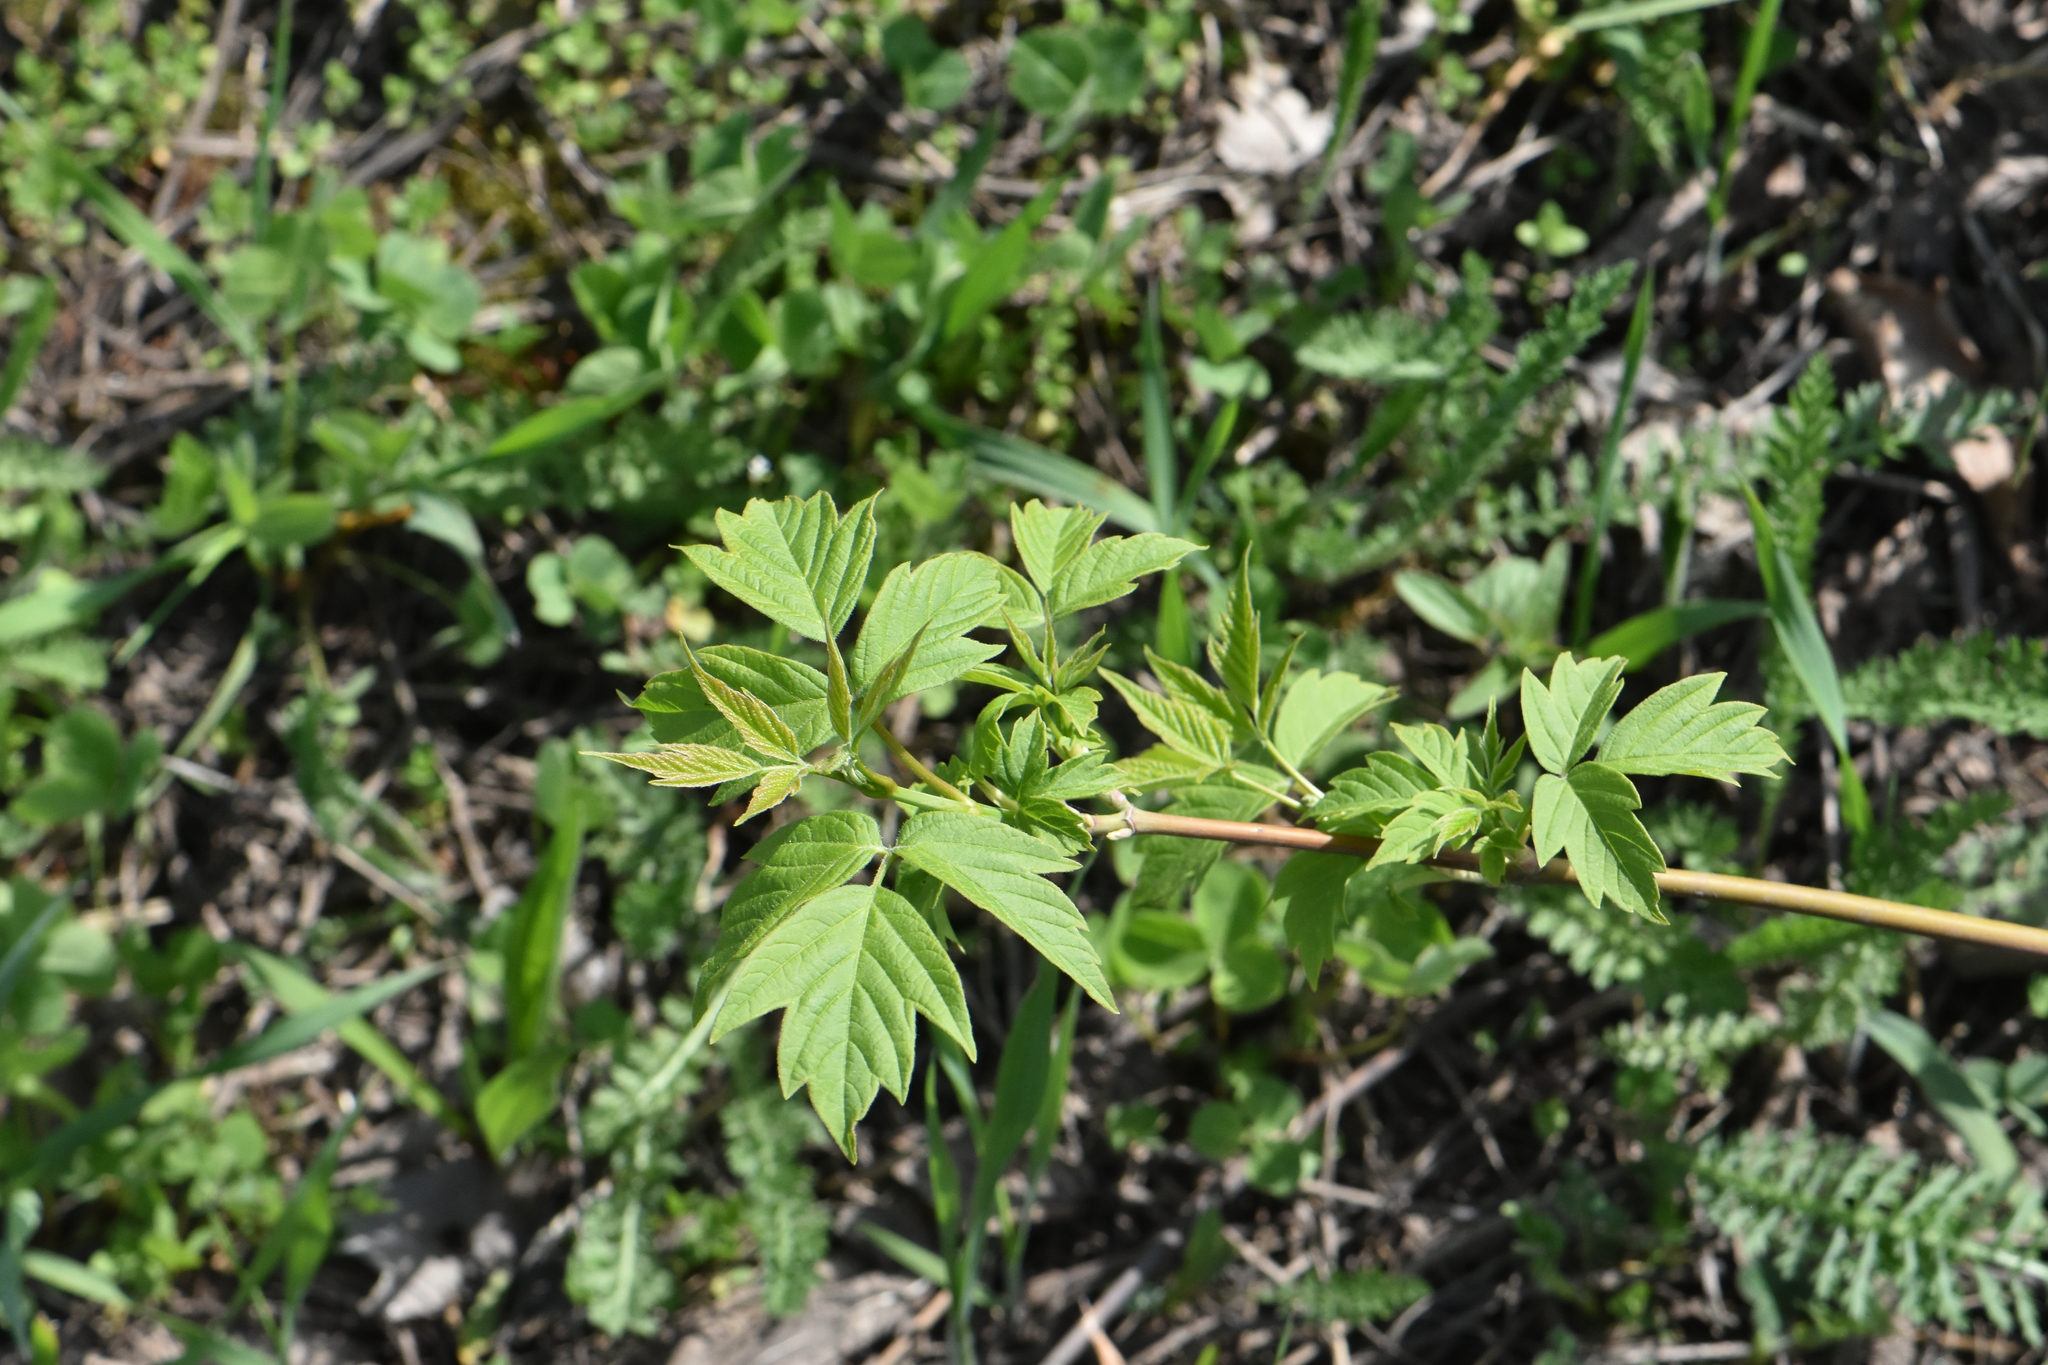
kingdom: Plantae
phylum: Tracheophyta
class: Magnoliopsida
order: Sapindales
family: Sapindaceae
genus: Acer
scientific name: Acer negundo
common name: Ashleaf maple
